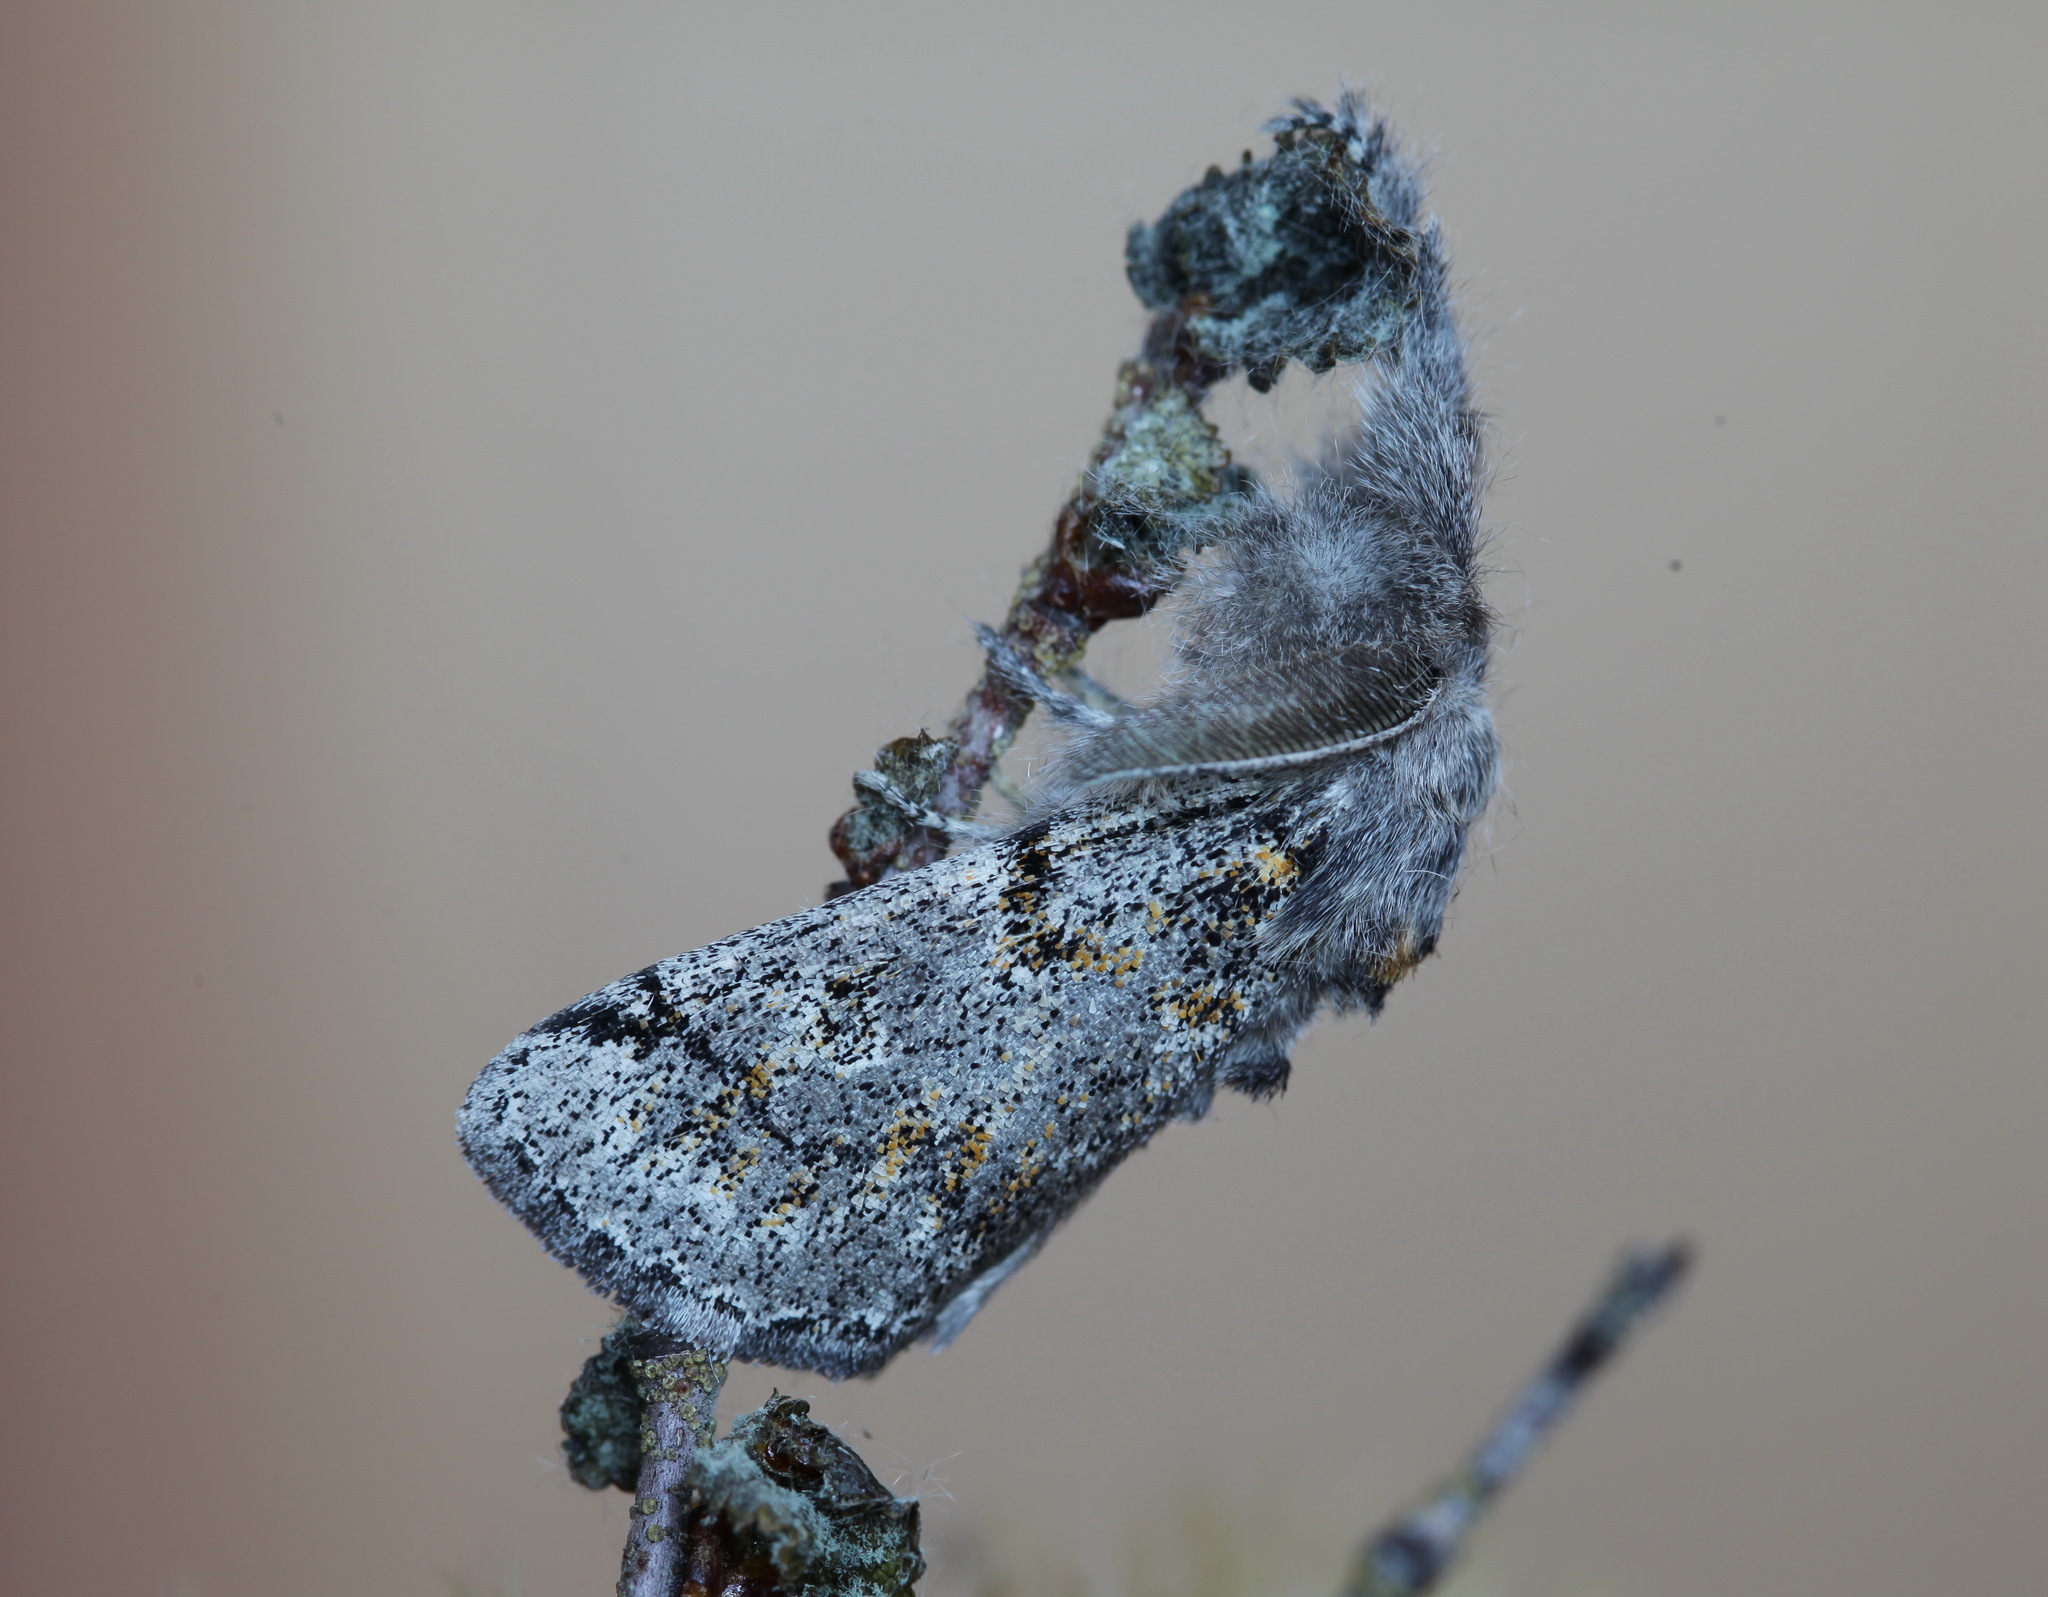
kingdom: Animalia
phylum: Arthropoda
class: Insecta
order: Lepidoptera
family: Erebidae
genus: Calliteara
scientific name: Calliteara Dicallomera fascelina
